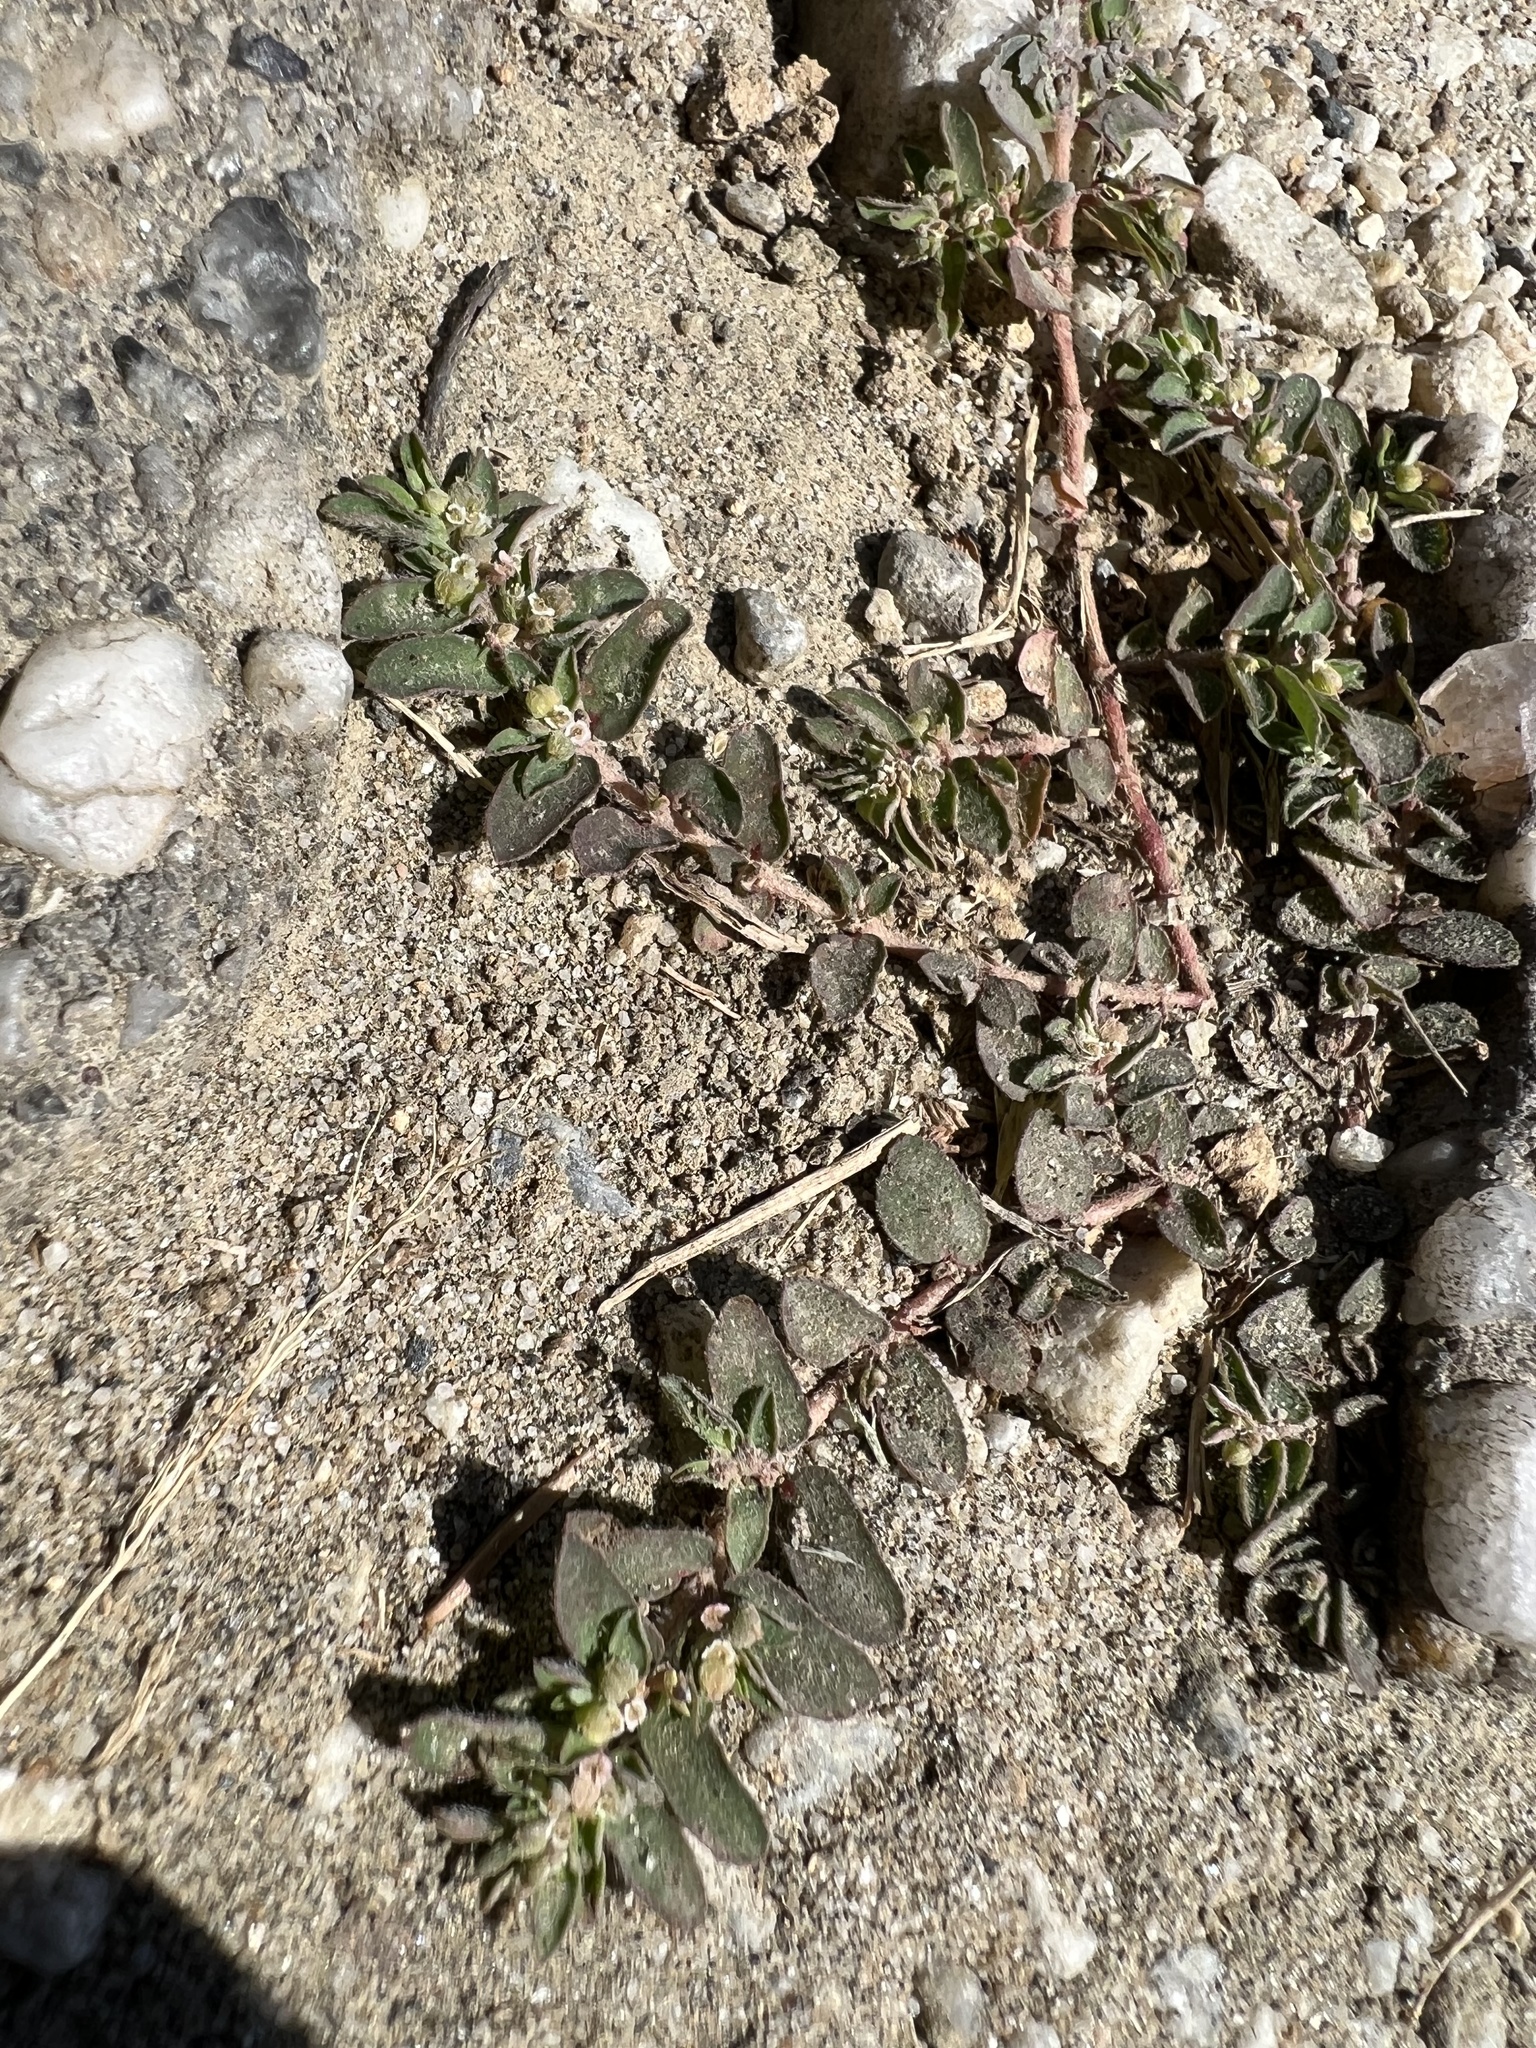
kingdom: Plantae
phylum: Tracheophyta
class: Magnoliopsida
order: Malpighiales
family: Euphorbiaceae
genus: Euphorbia
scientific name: Euphorbia maculata
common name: Spotted spurge
